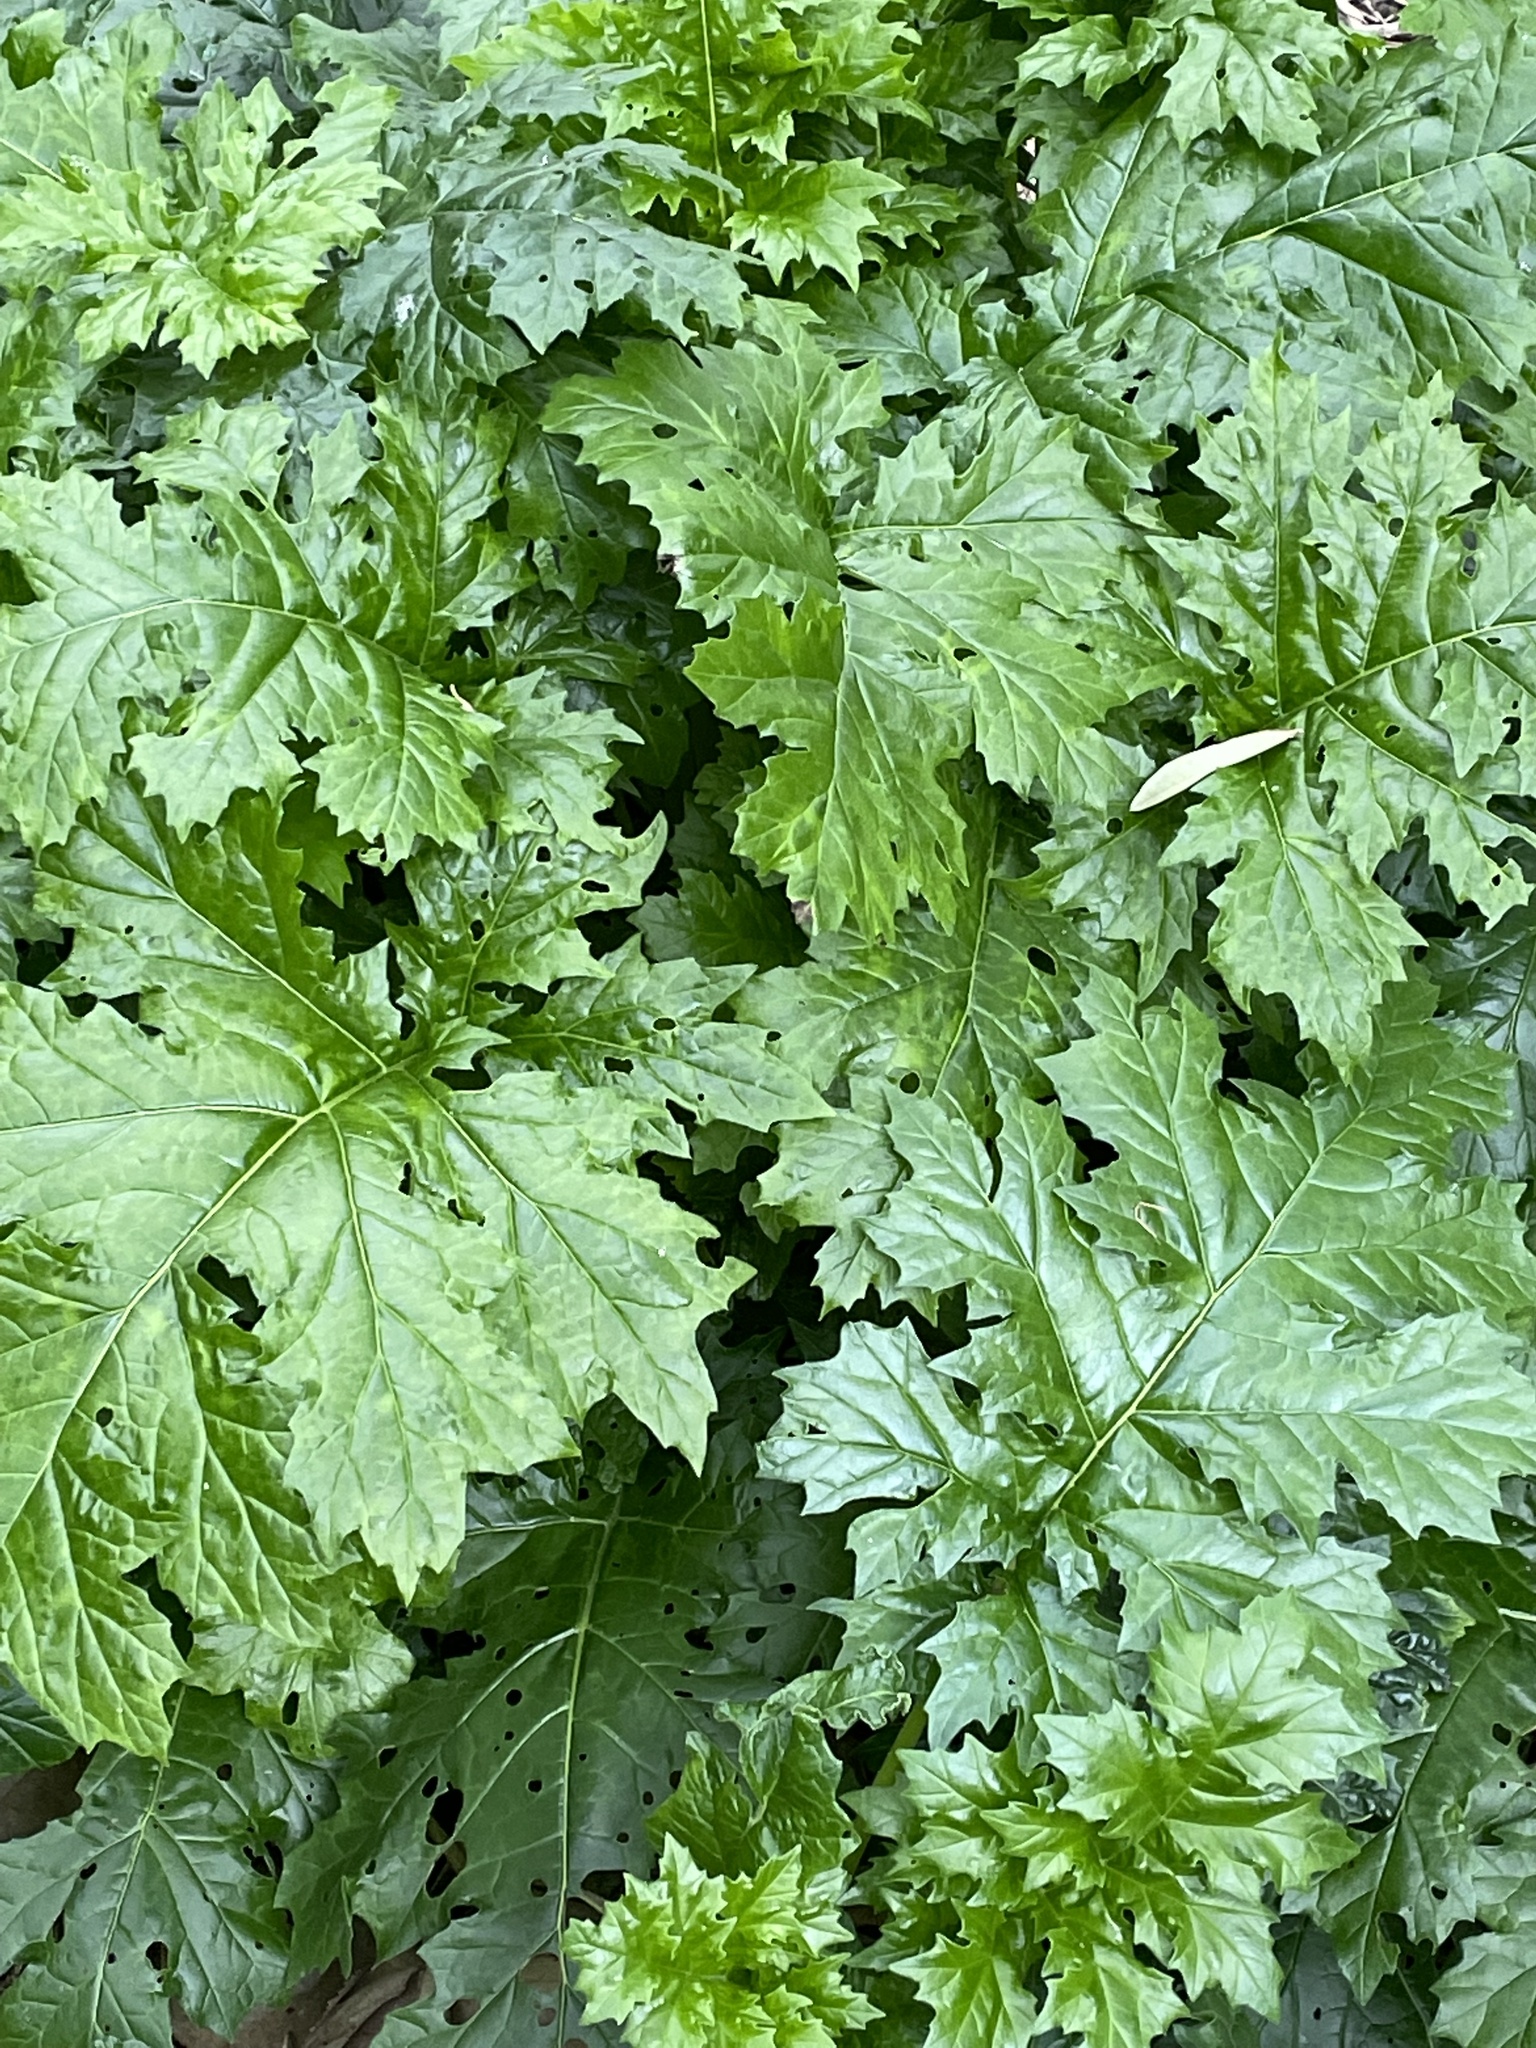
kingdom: Plantae
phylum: Tracheophyta
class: Magnoliopsida
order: Lamiales
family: Acanthaceae
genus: Acanthus
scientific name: Acanthus mollis
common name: Bear's-breech
